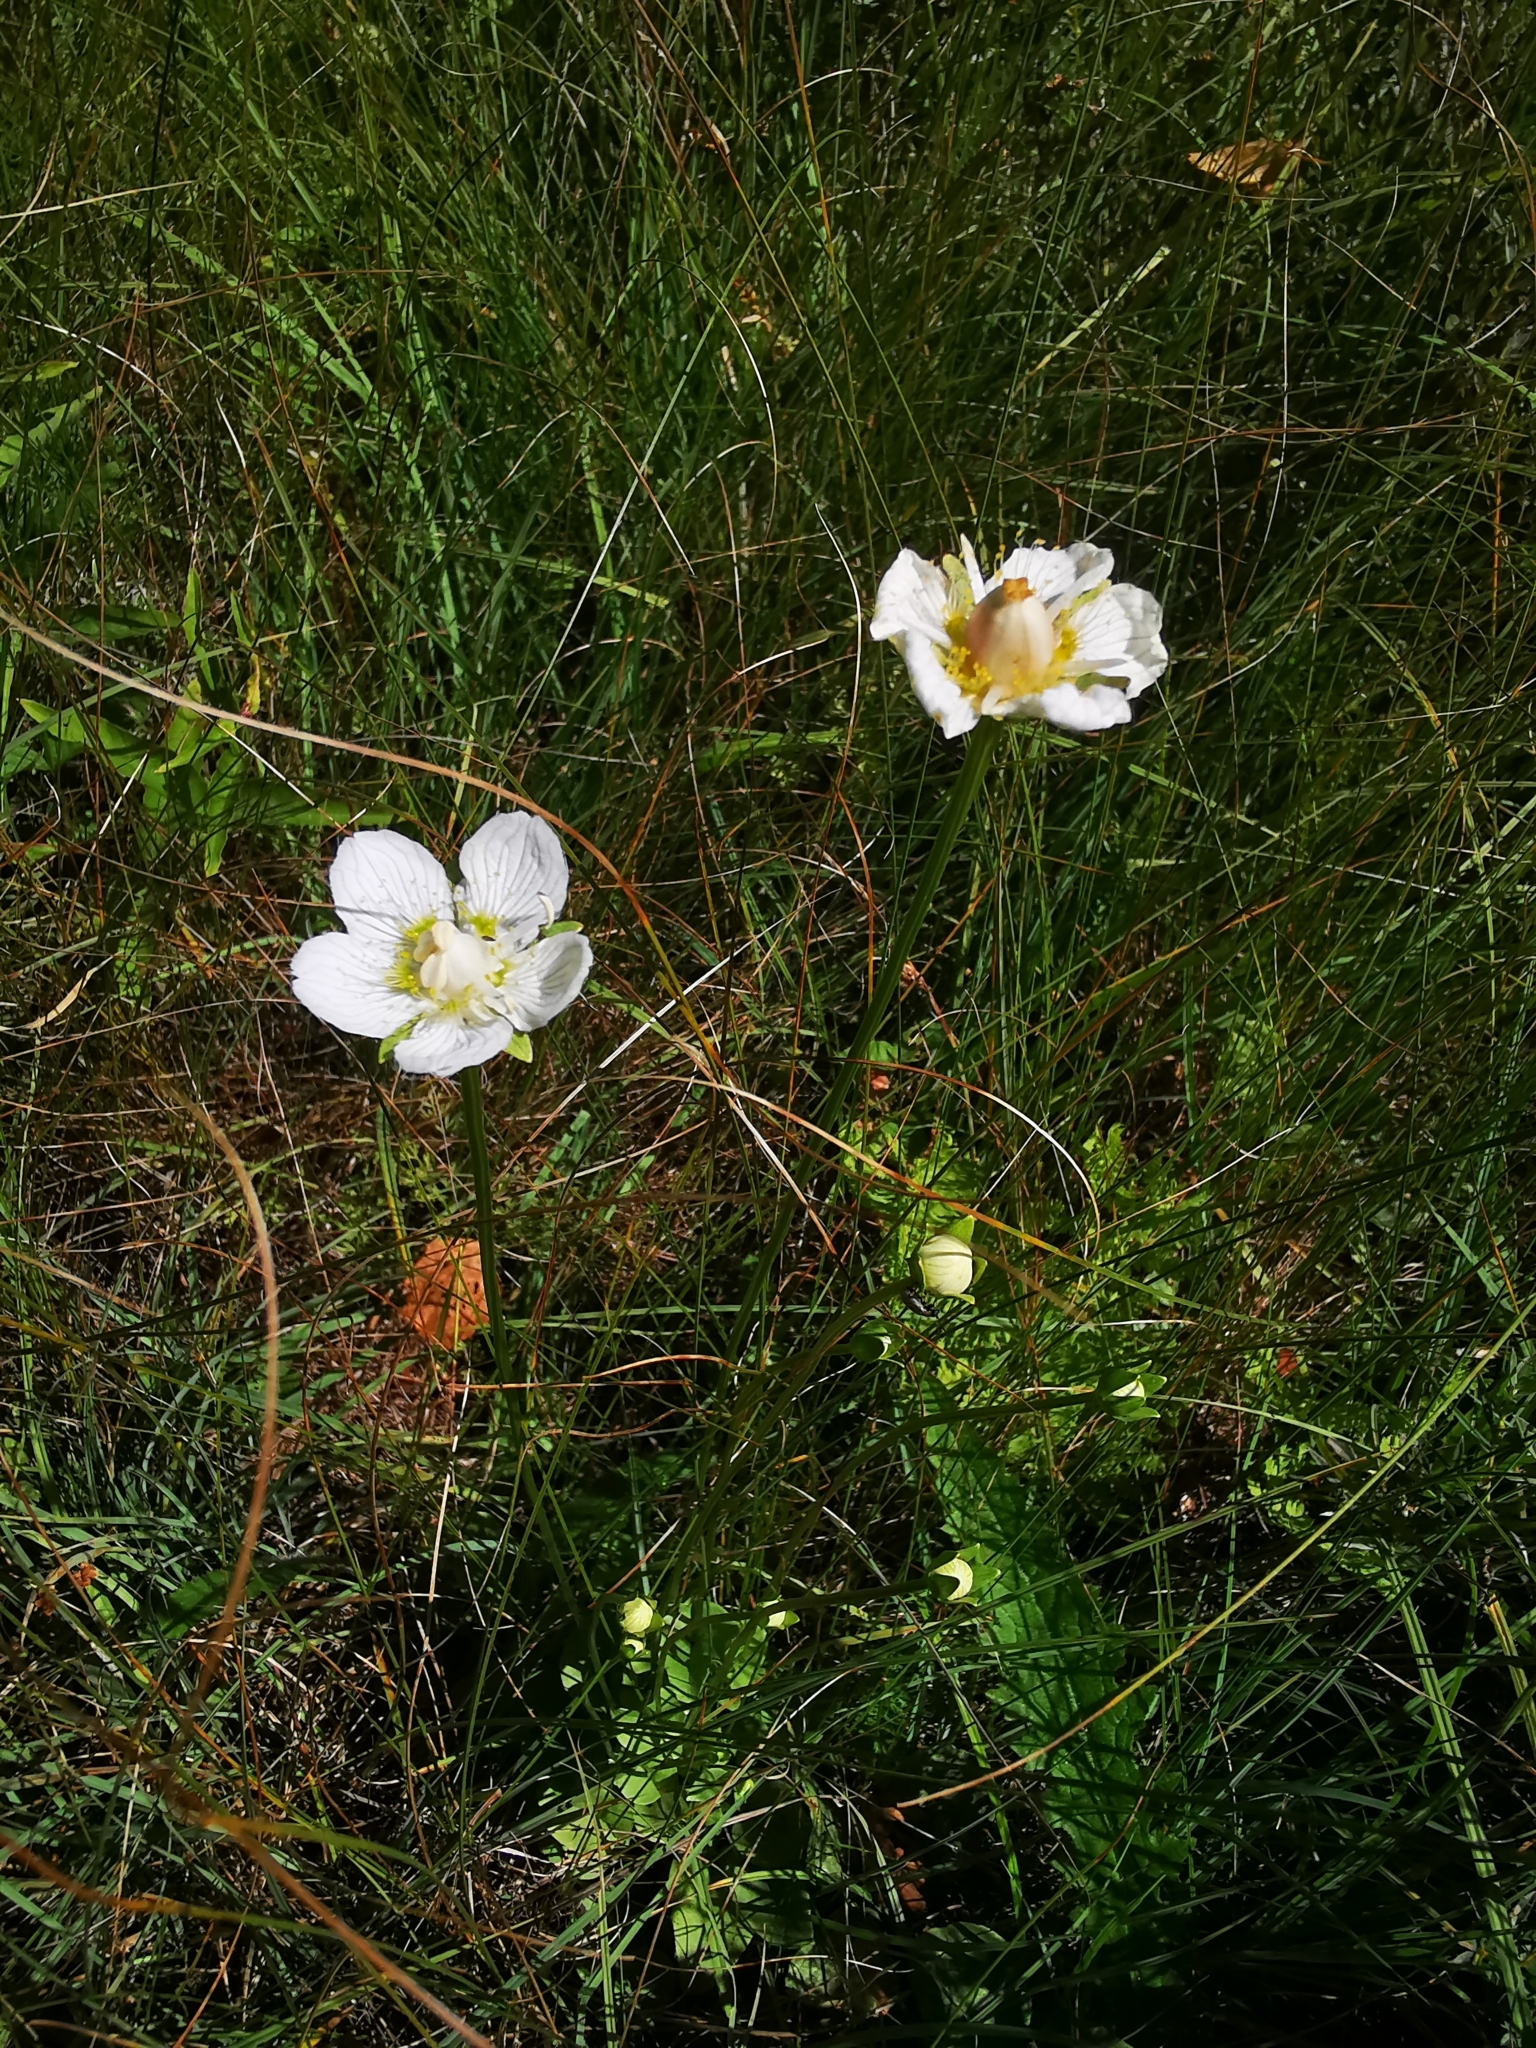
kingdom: Plantae
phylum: Tracheophyta
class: Magnoliopsida
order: Celastrales
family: Parnassiaceae
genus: Parnassia
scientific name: Parnassia palustris
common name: Grass-of-parnassus
